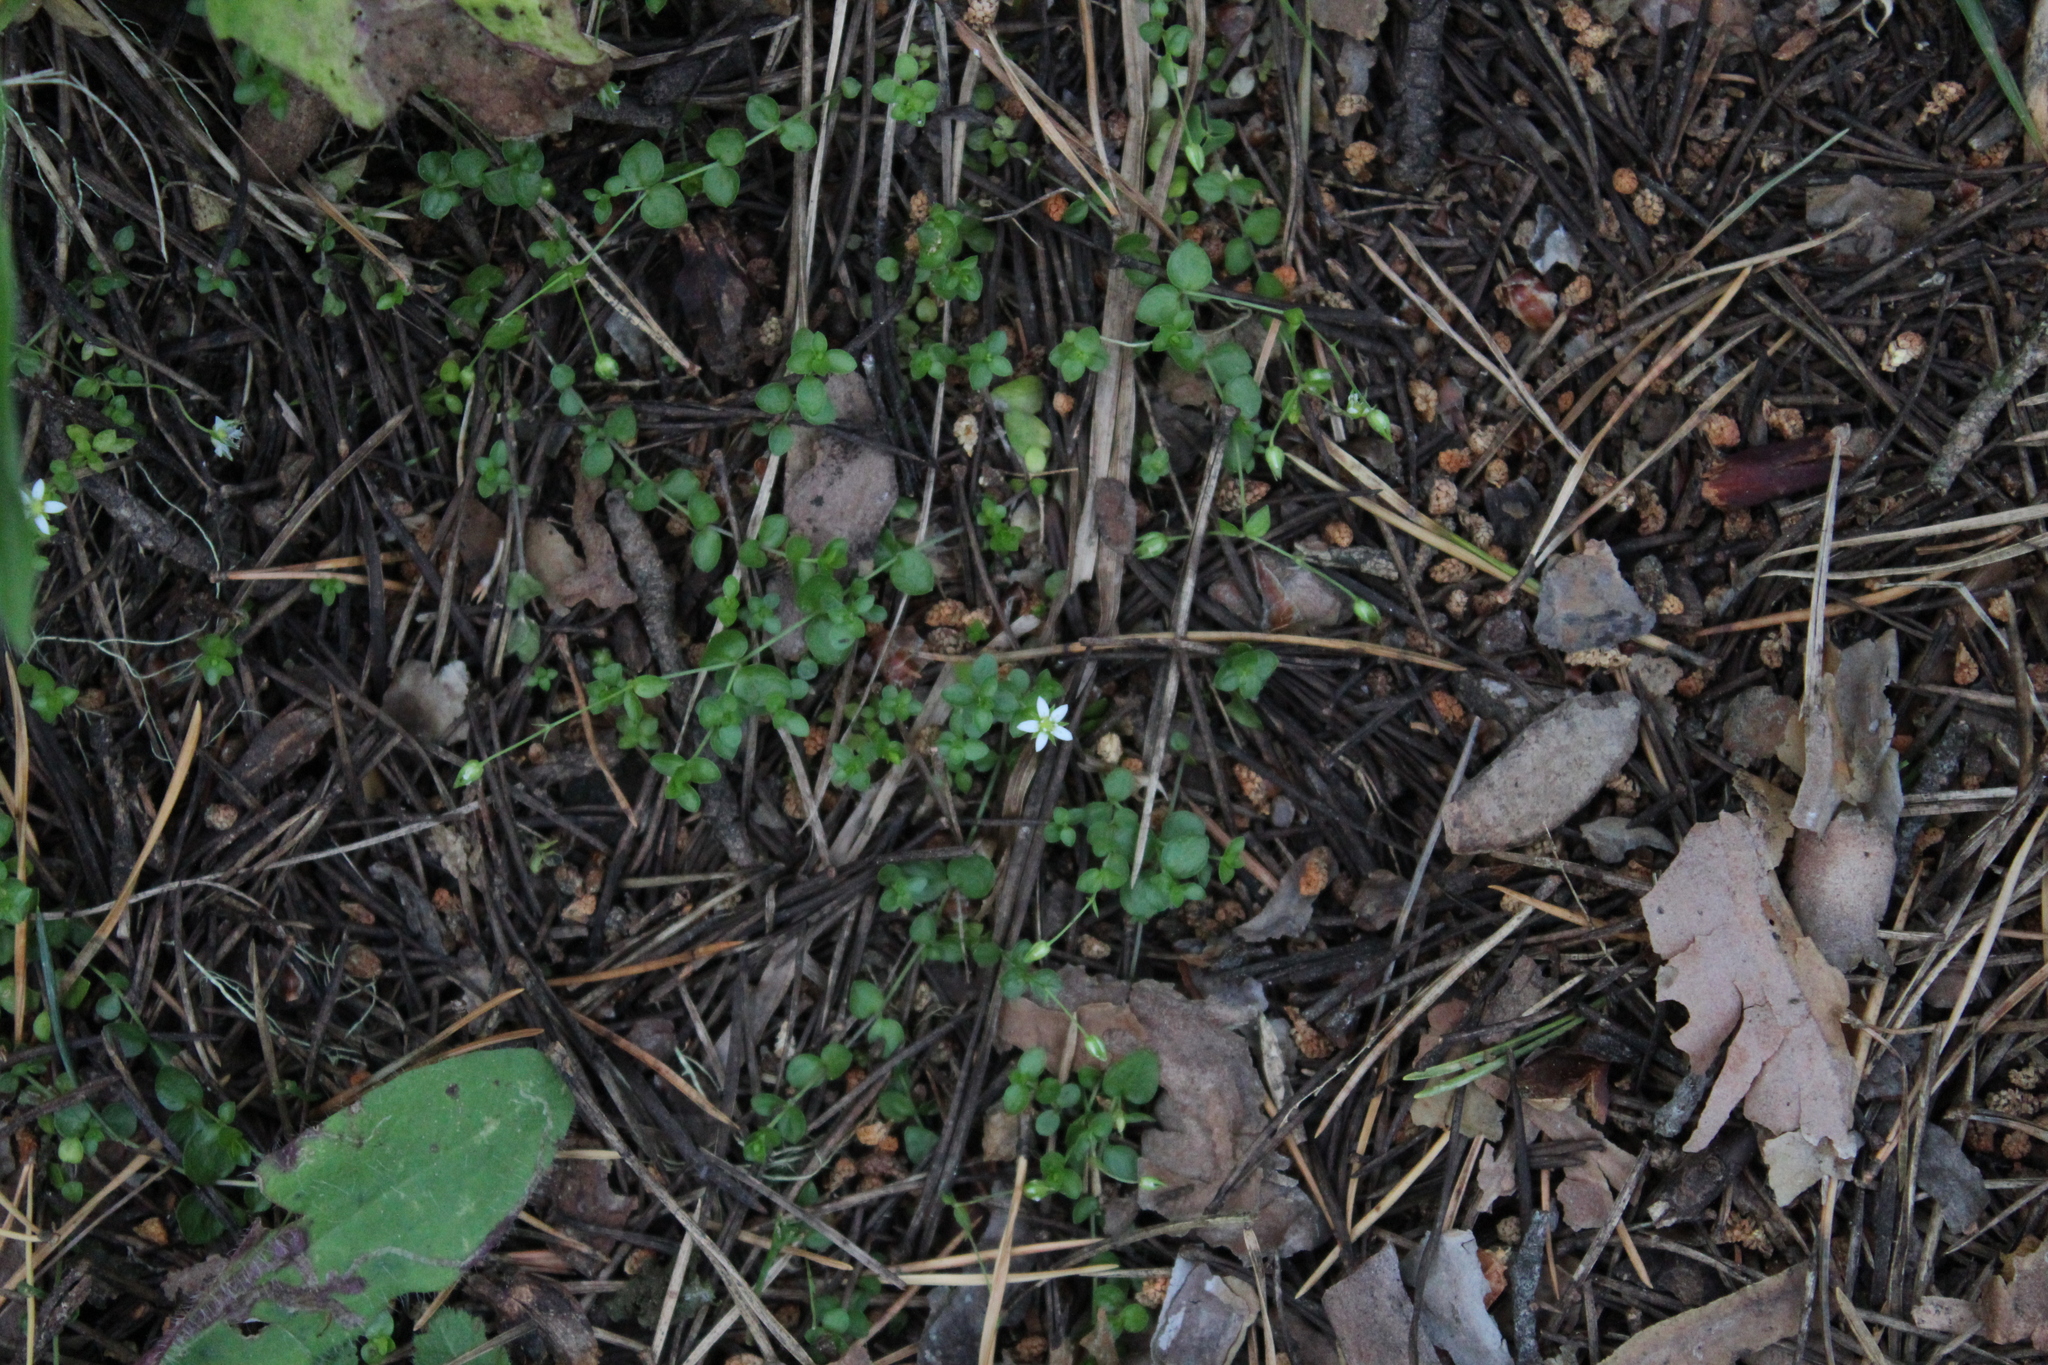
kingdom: Plantae
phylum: Tracheophyta
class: Magnoliopsida
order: Caryophyllales
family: Caryophyllaceae
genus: Arenaria
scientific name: Arenaria rotundifolia
